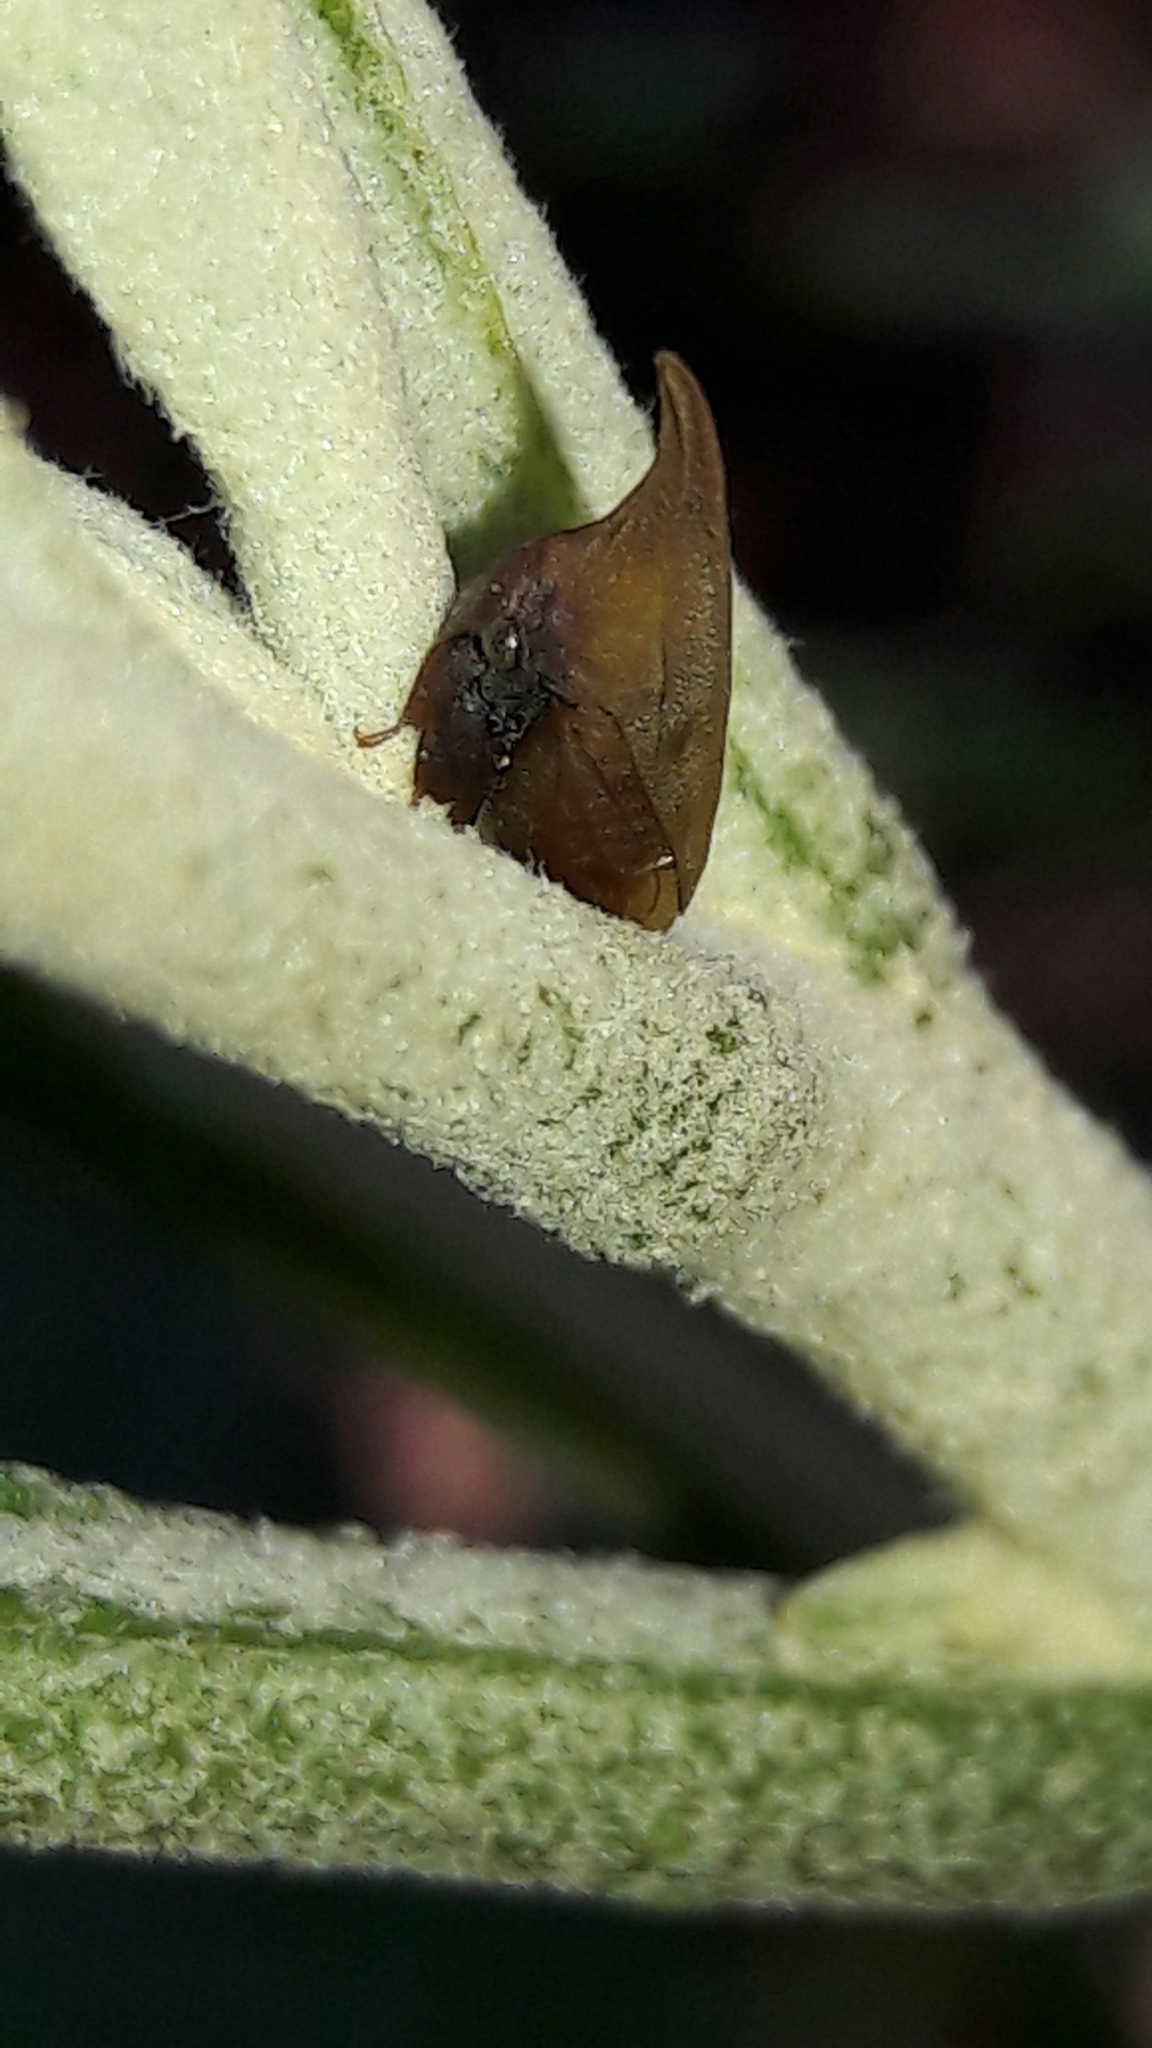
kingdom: Animalia
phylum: Arthropoda
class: Insecta
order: Hemiptera
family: Membracidae
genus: Enchenopa
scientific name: Enchenopa squamigera
